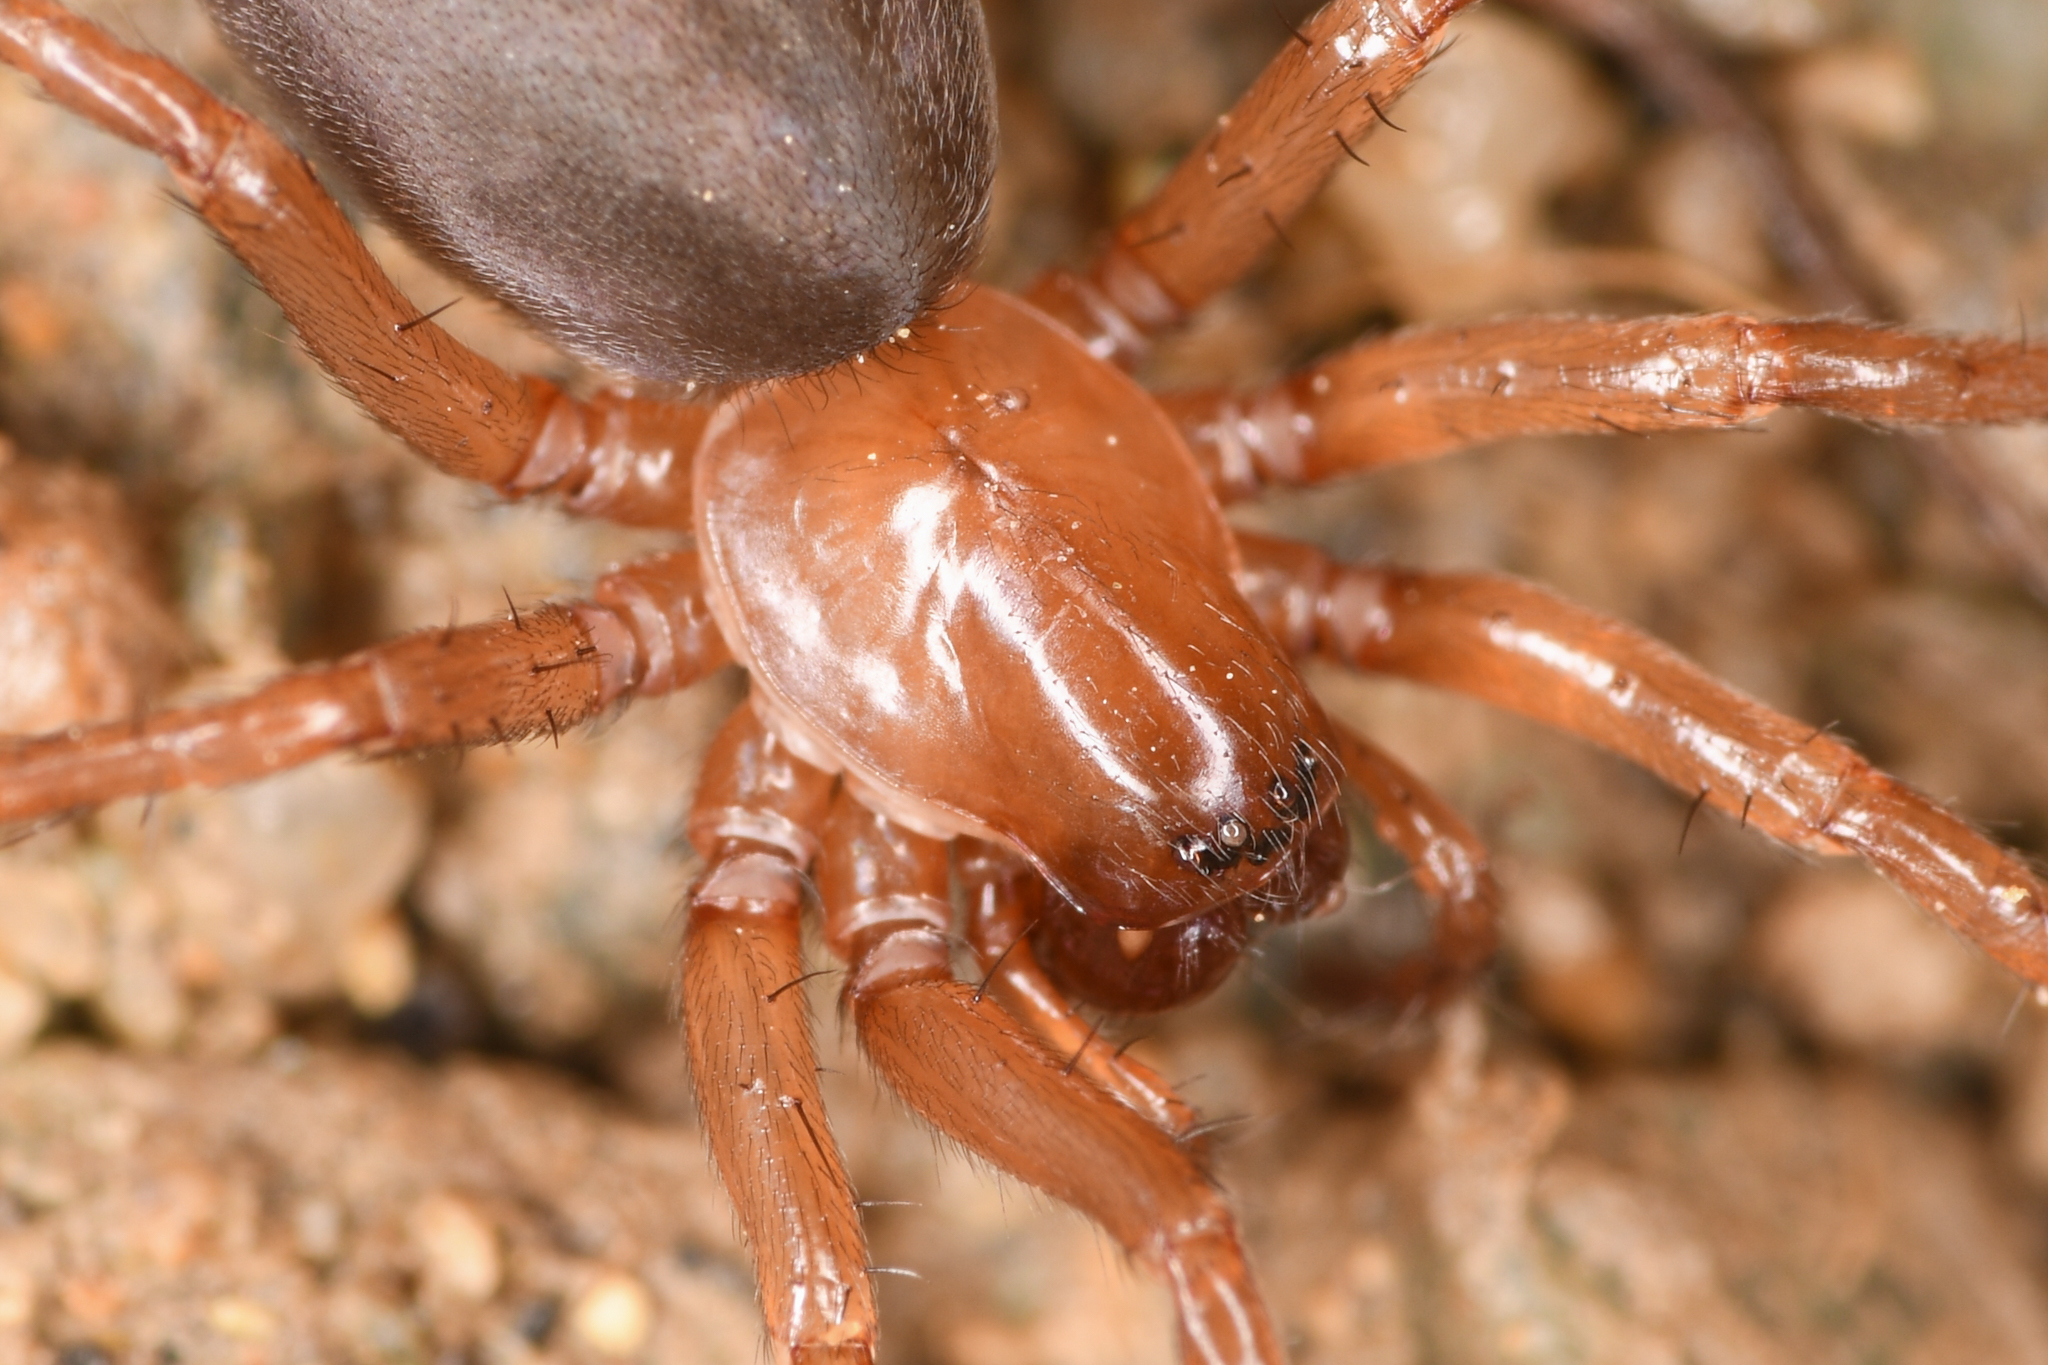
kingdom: Animalia
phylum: Arthropoda
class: Arachnida
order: Araneae
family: Cybaeidae
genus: Cybaeus
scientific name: Cybaeus charlesi
